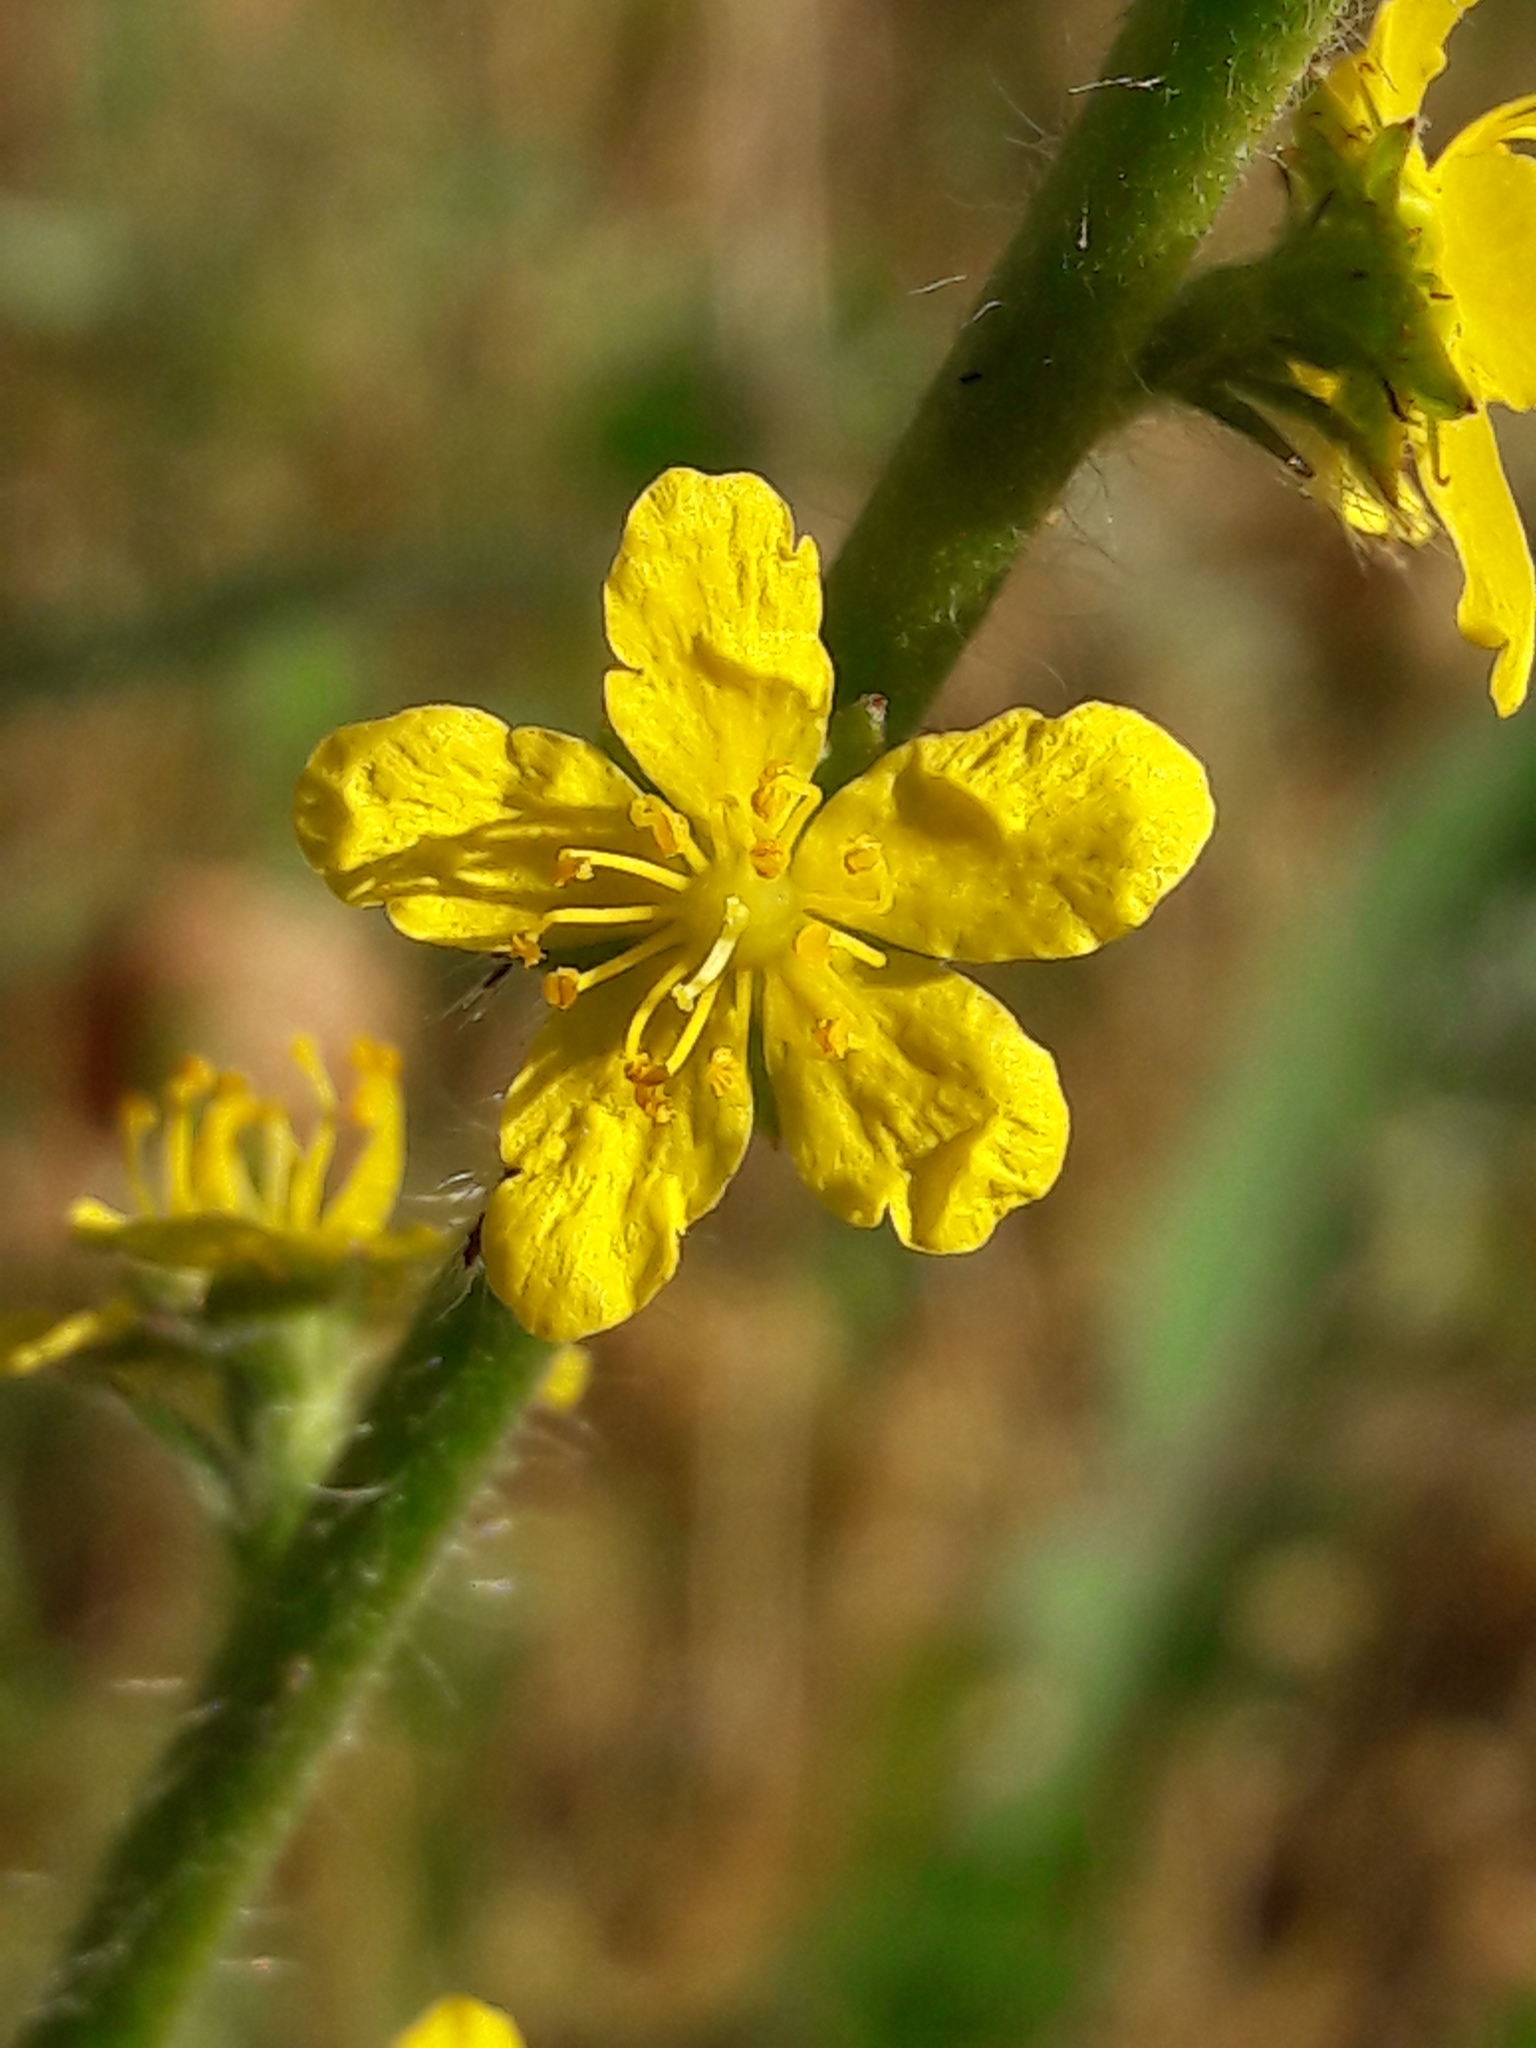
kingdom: Plantae
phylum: Tracheophyta
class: Magnoliopsida
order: Rosales
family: Rosaceae
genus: Agrimonia
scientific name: Agrimonia eupatoria
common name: Agrimony
